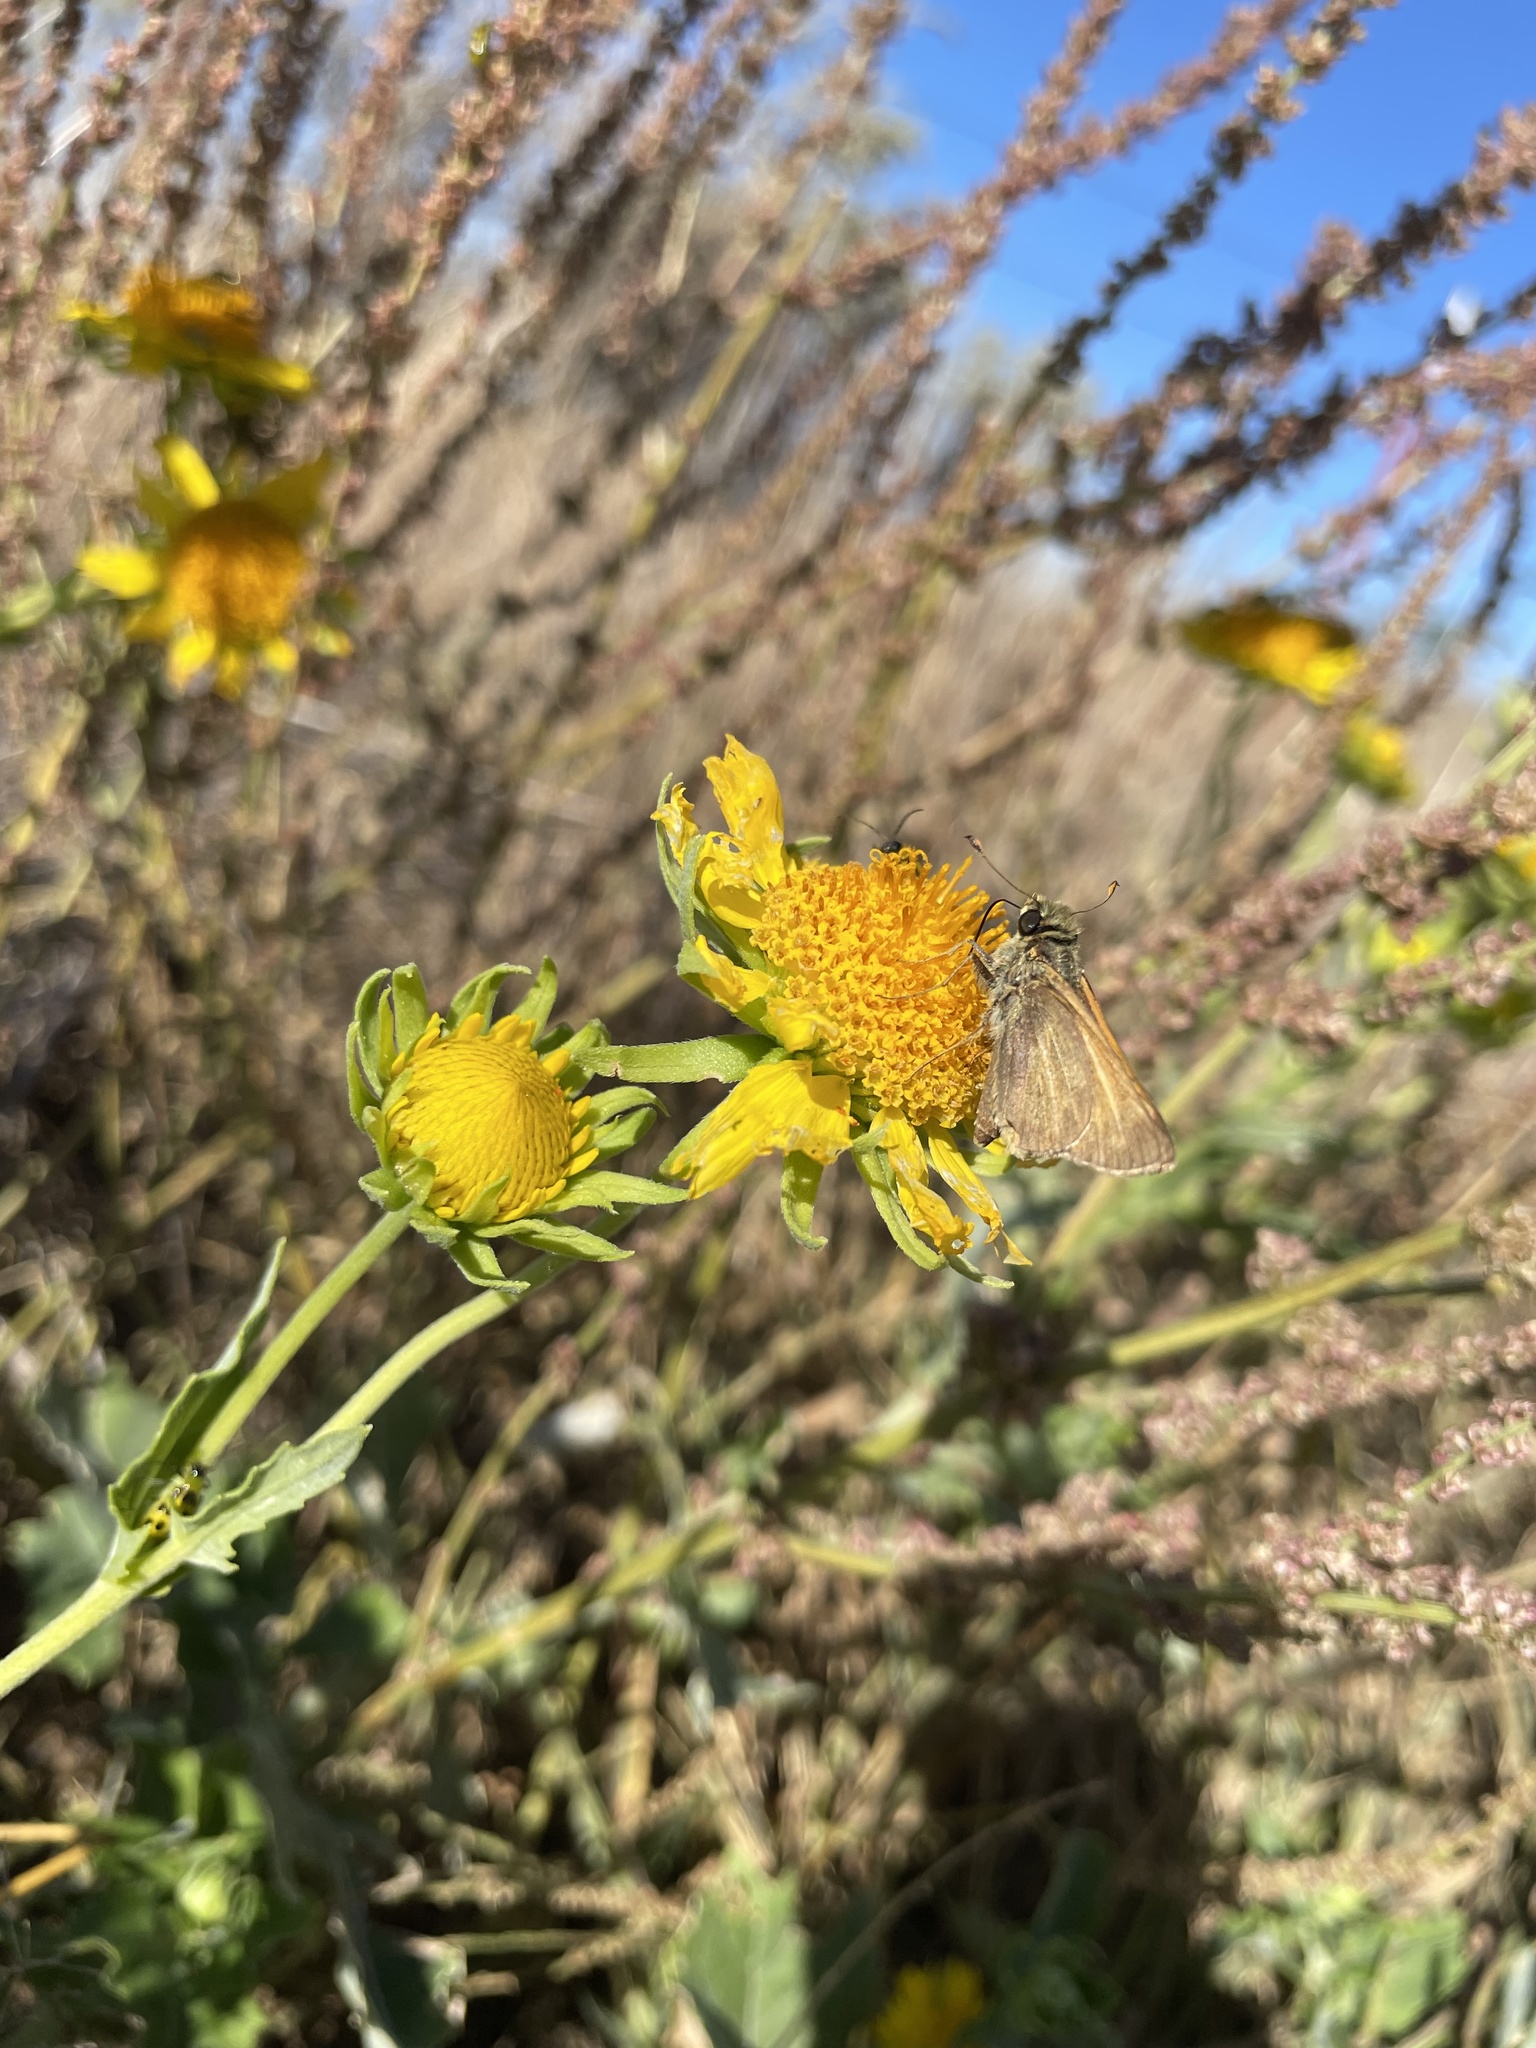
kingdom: Animalia
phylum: Arthropoda
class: Insecta
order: Lepidoptera
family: Hesperiidae
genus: Atalopedes
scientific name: Atalopedes
